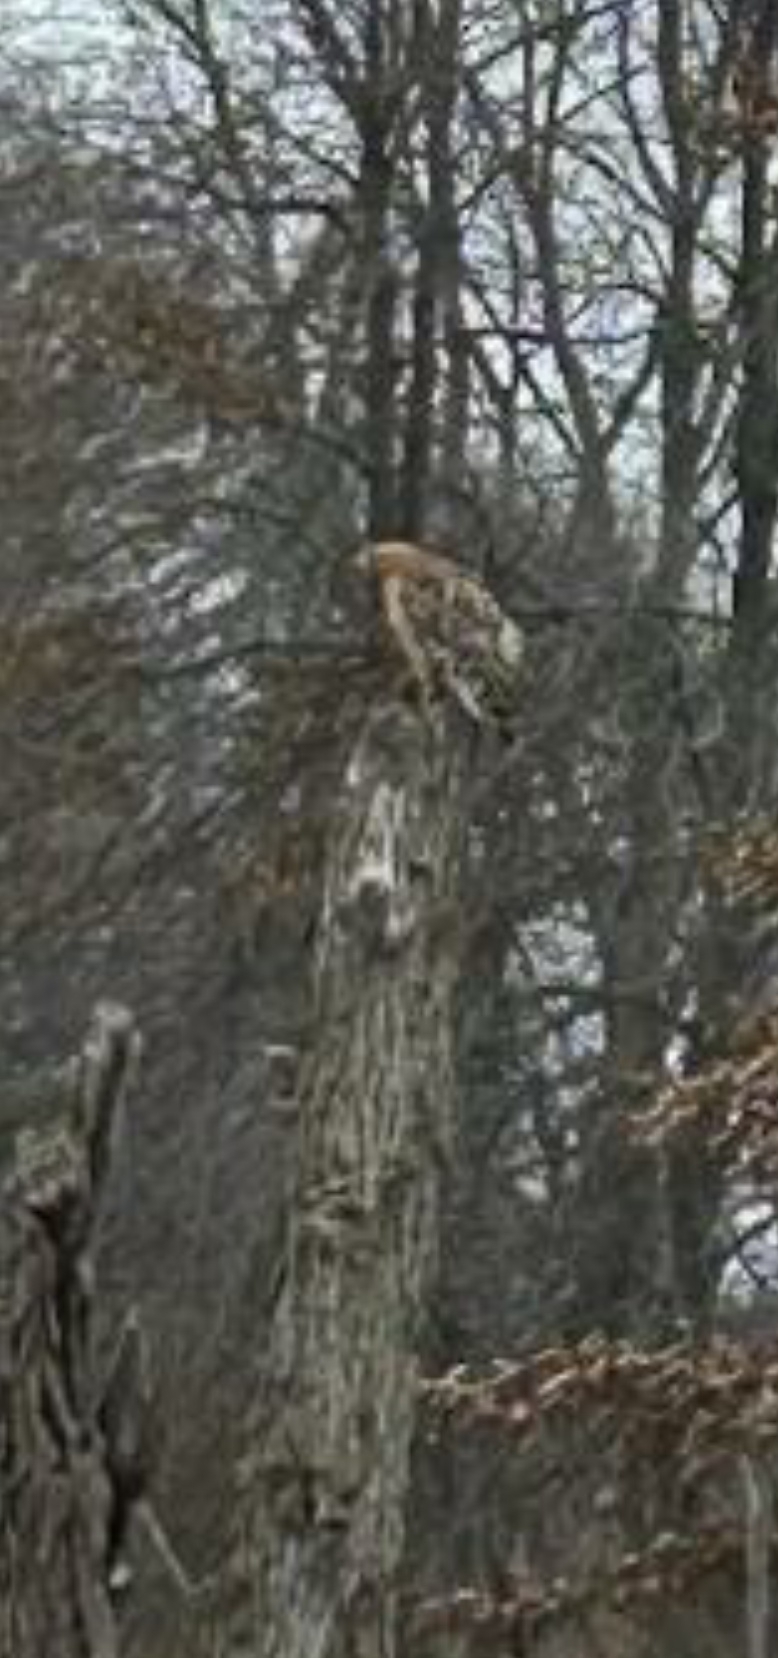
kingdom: Animalia
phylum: Chordata
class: Aves
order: Accipitriformes
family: Accipitridae
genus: Buteo
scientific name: Buteo lineatus
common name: Red-shouldered hawk
